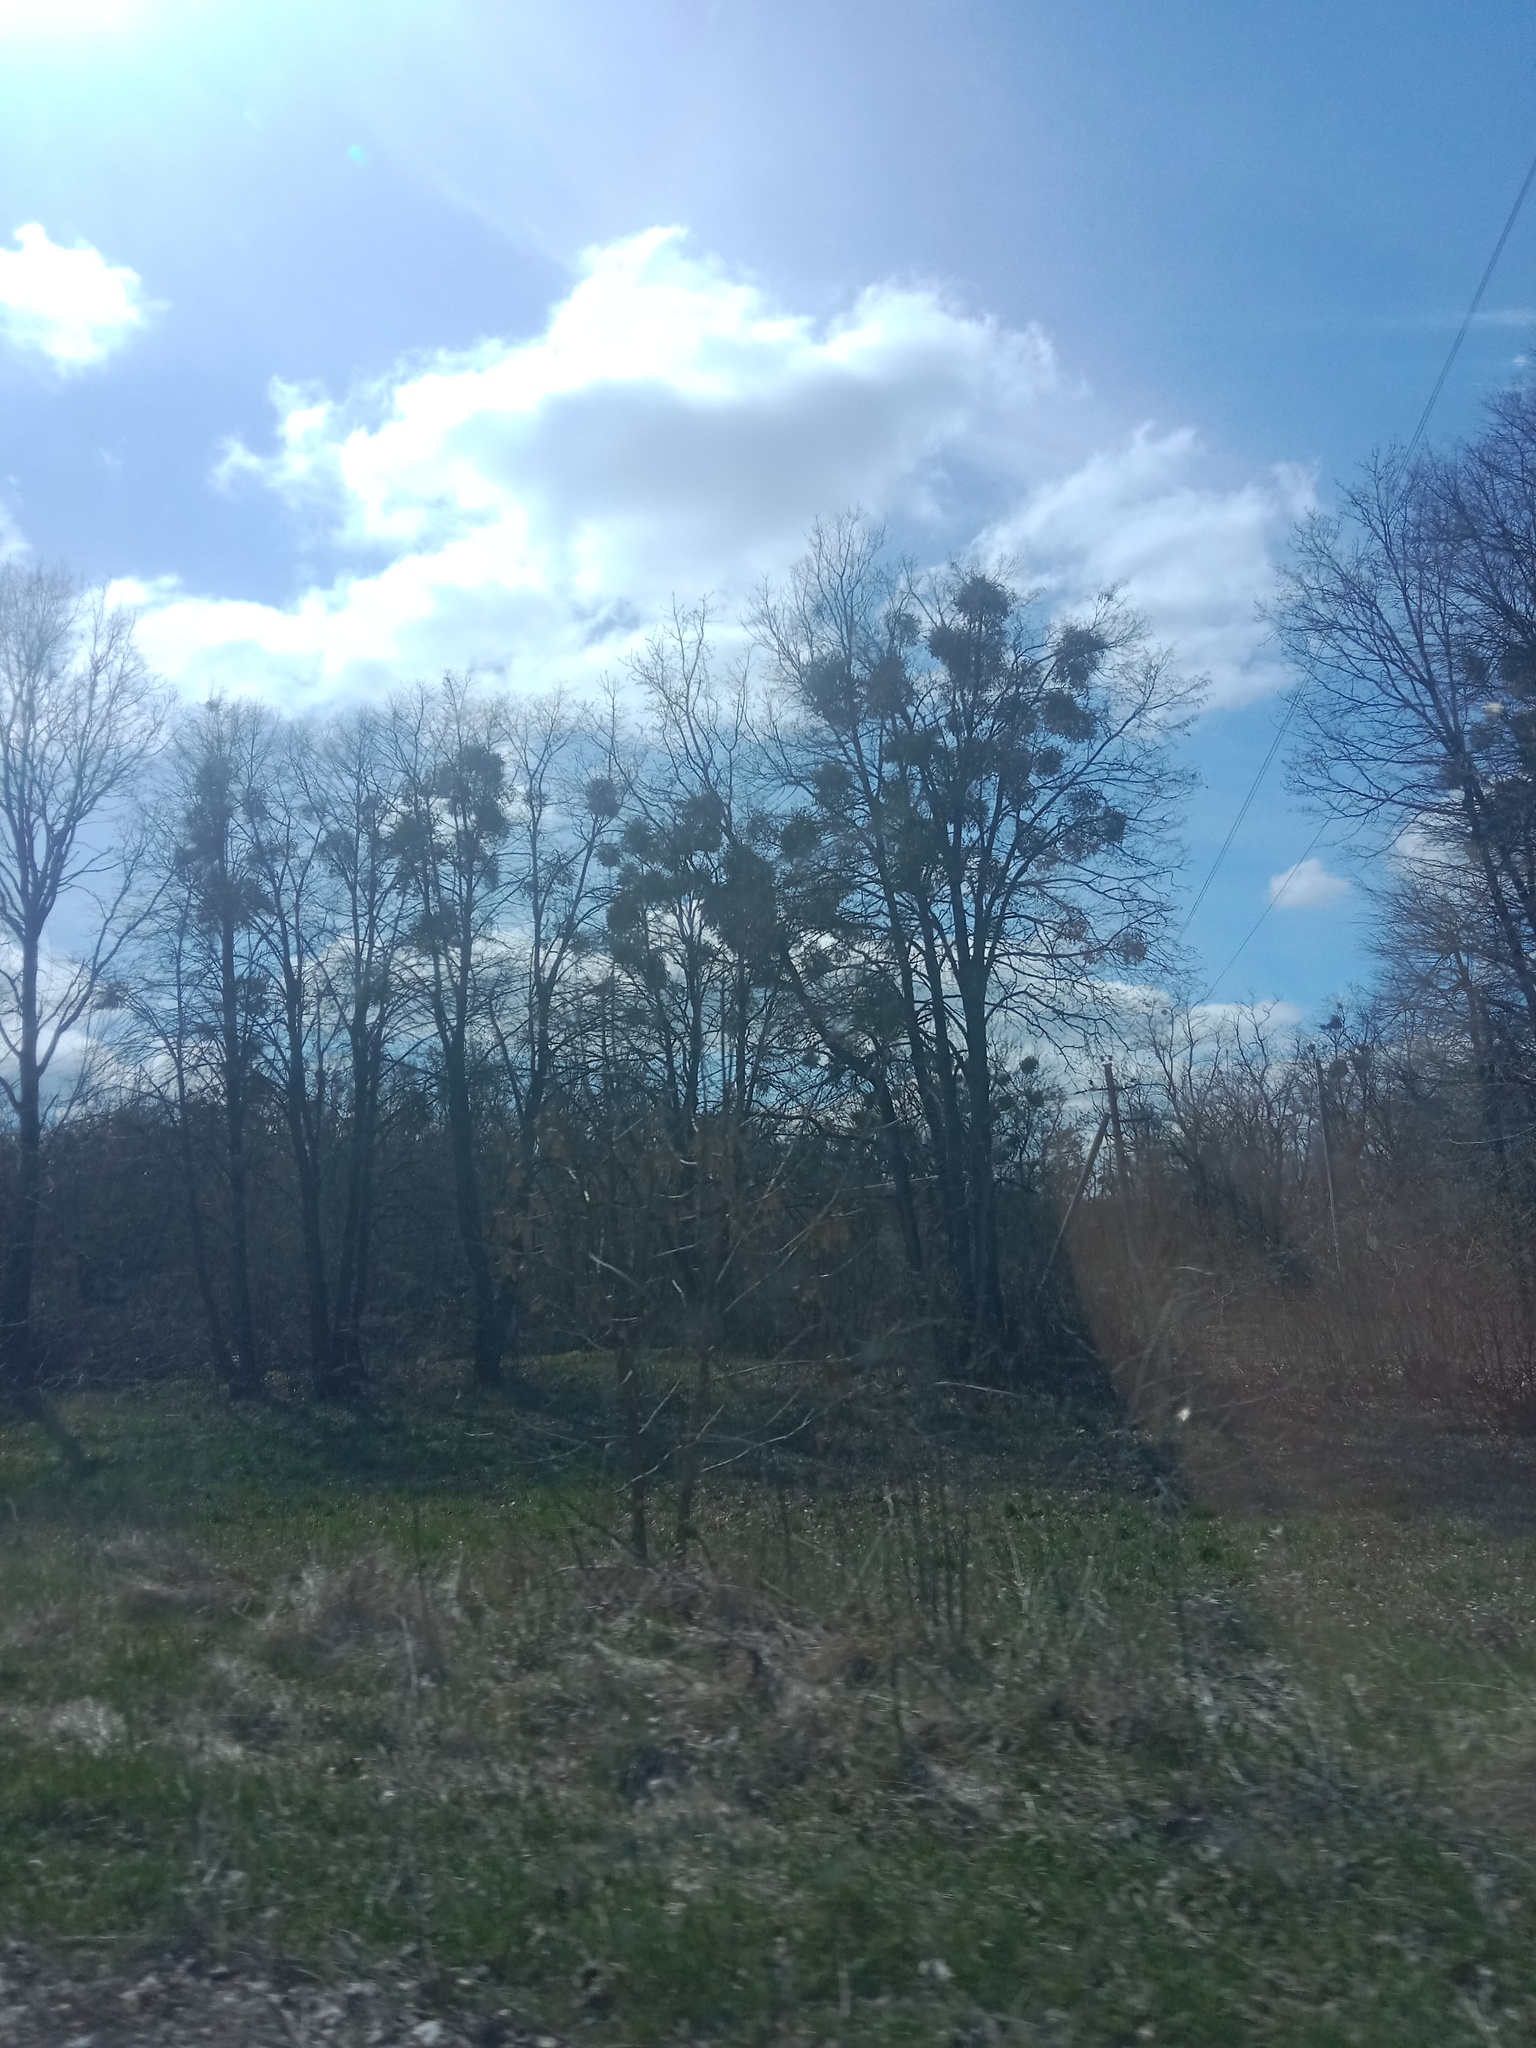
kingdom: Plantae
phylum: Tracheophyta
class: Magnoliopsida
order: Santalales
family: Viscaceae
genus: Viscum
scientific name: Viscum album
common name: Mistletoe
